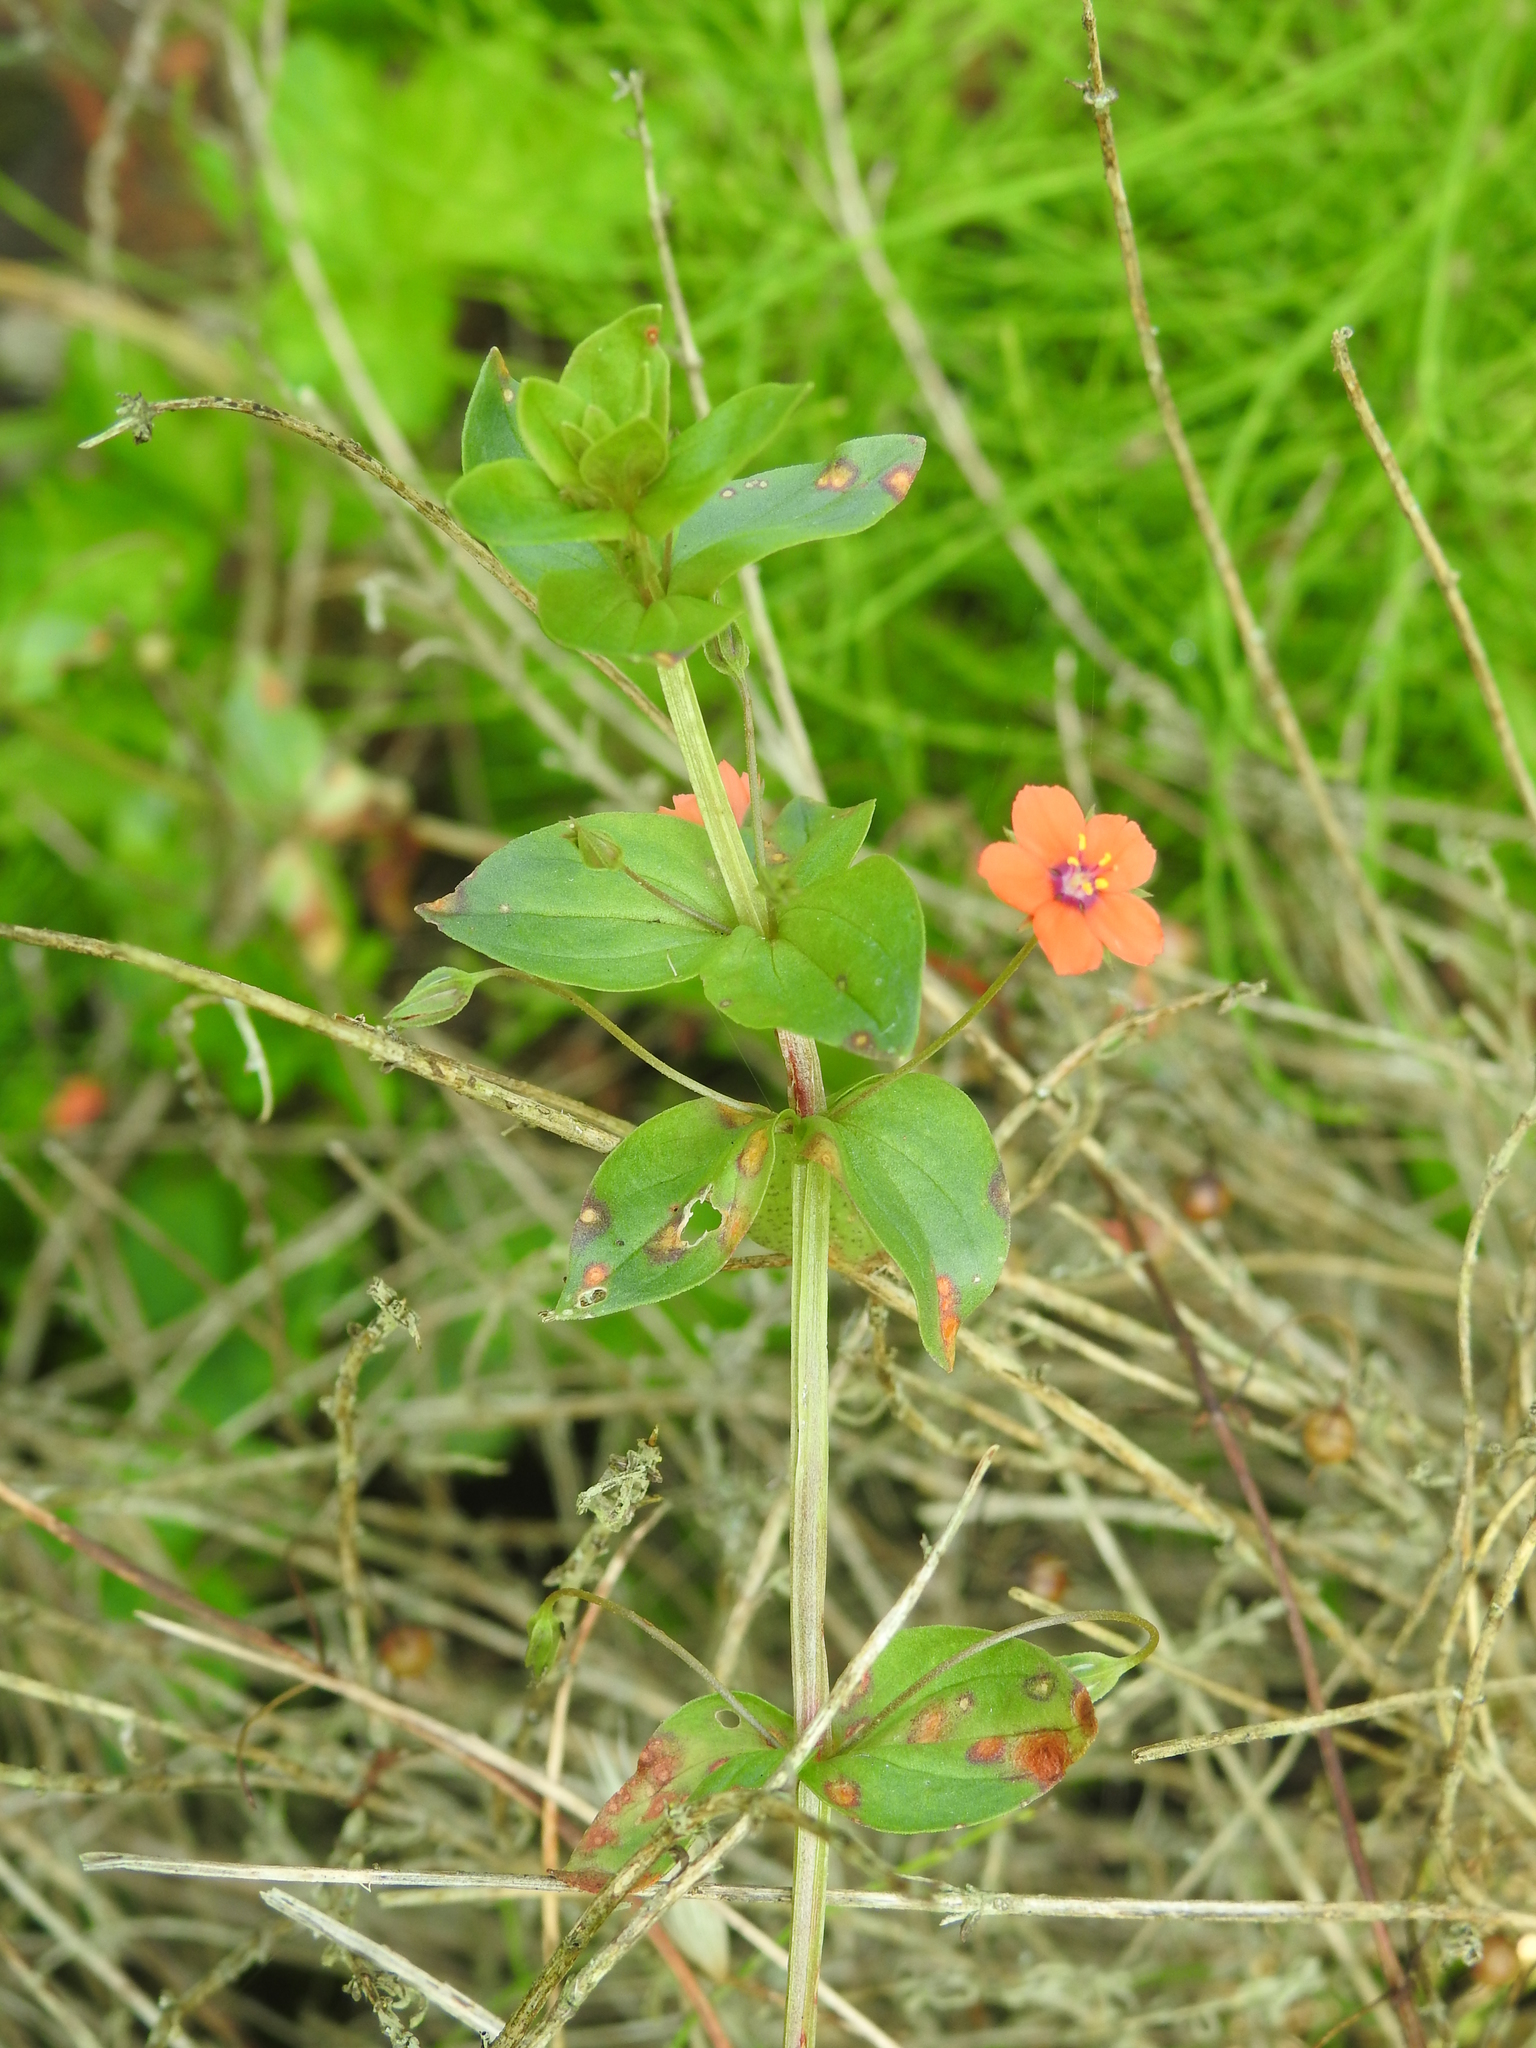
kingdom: Plantae
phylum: Tracheophyta
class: Magnoliopsida
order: Ericales
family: Primulaceae
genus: Lysimachia
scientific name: Lysimachia arvensis
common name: Scarlet pimpernel
